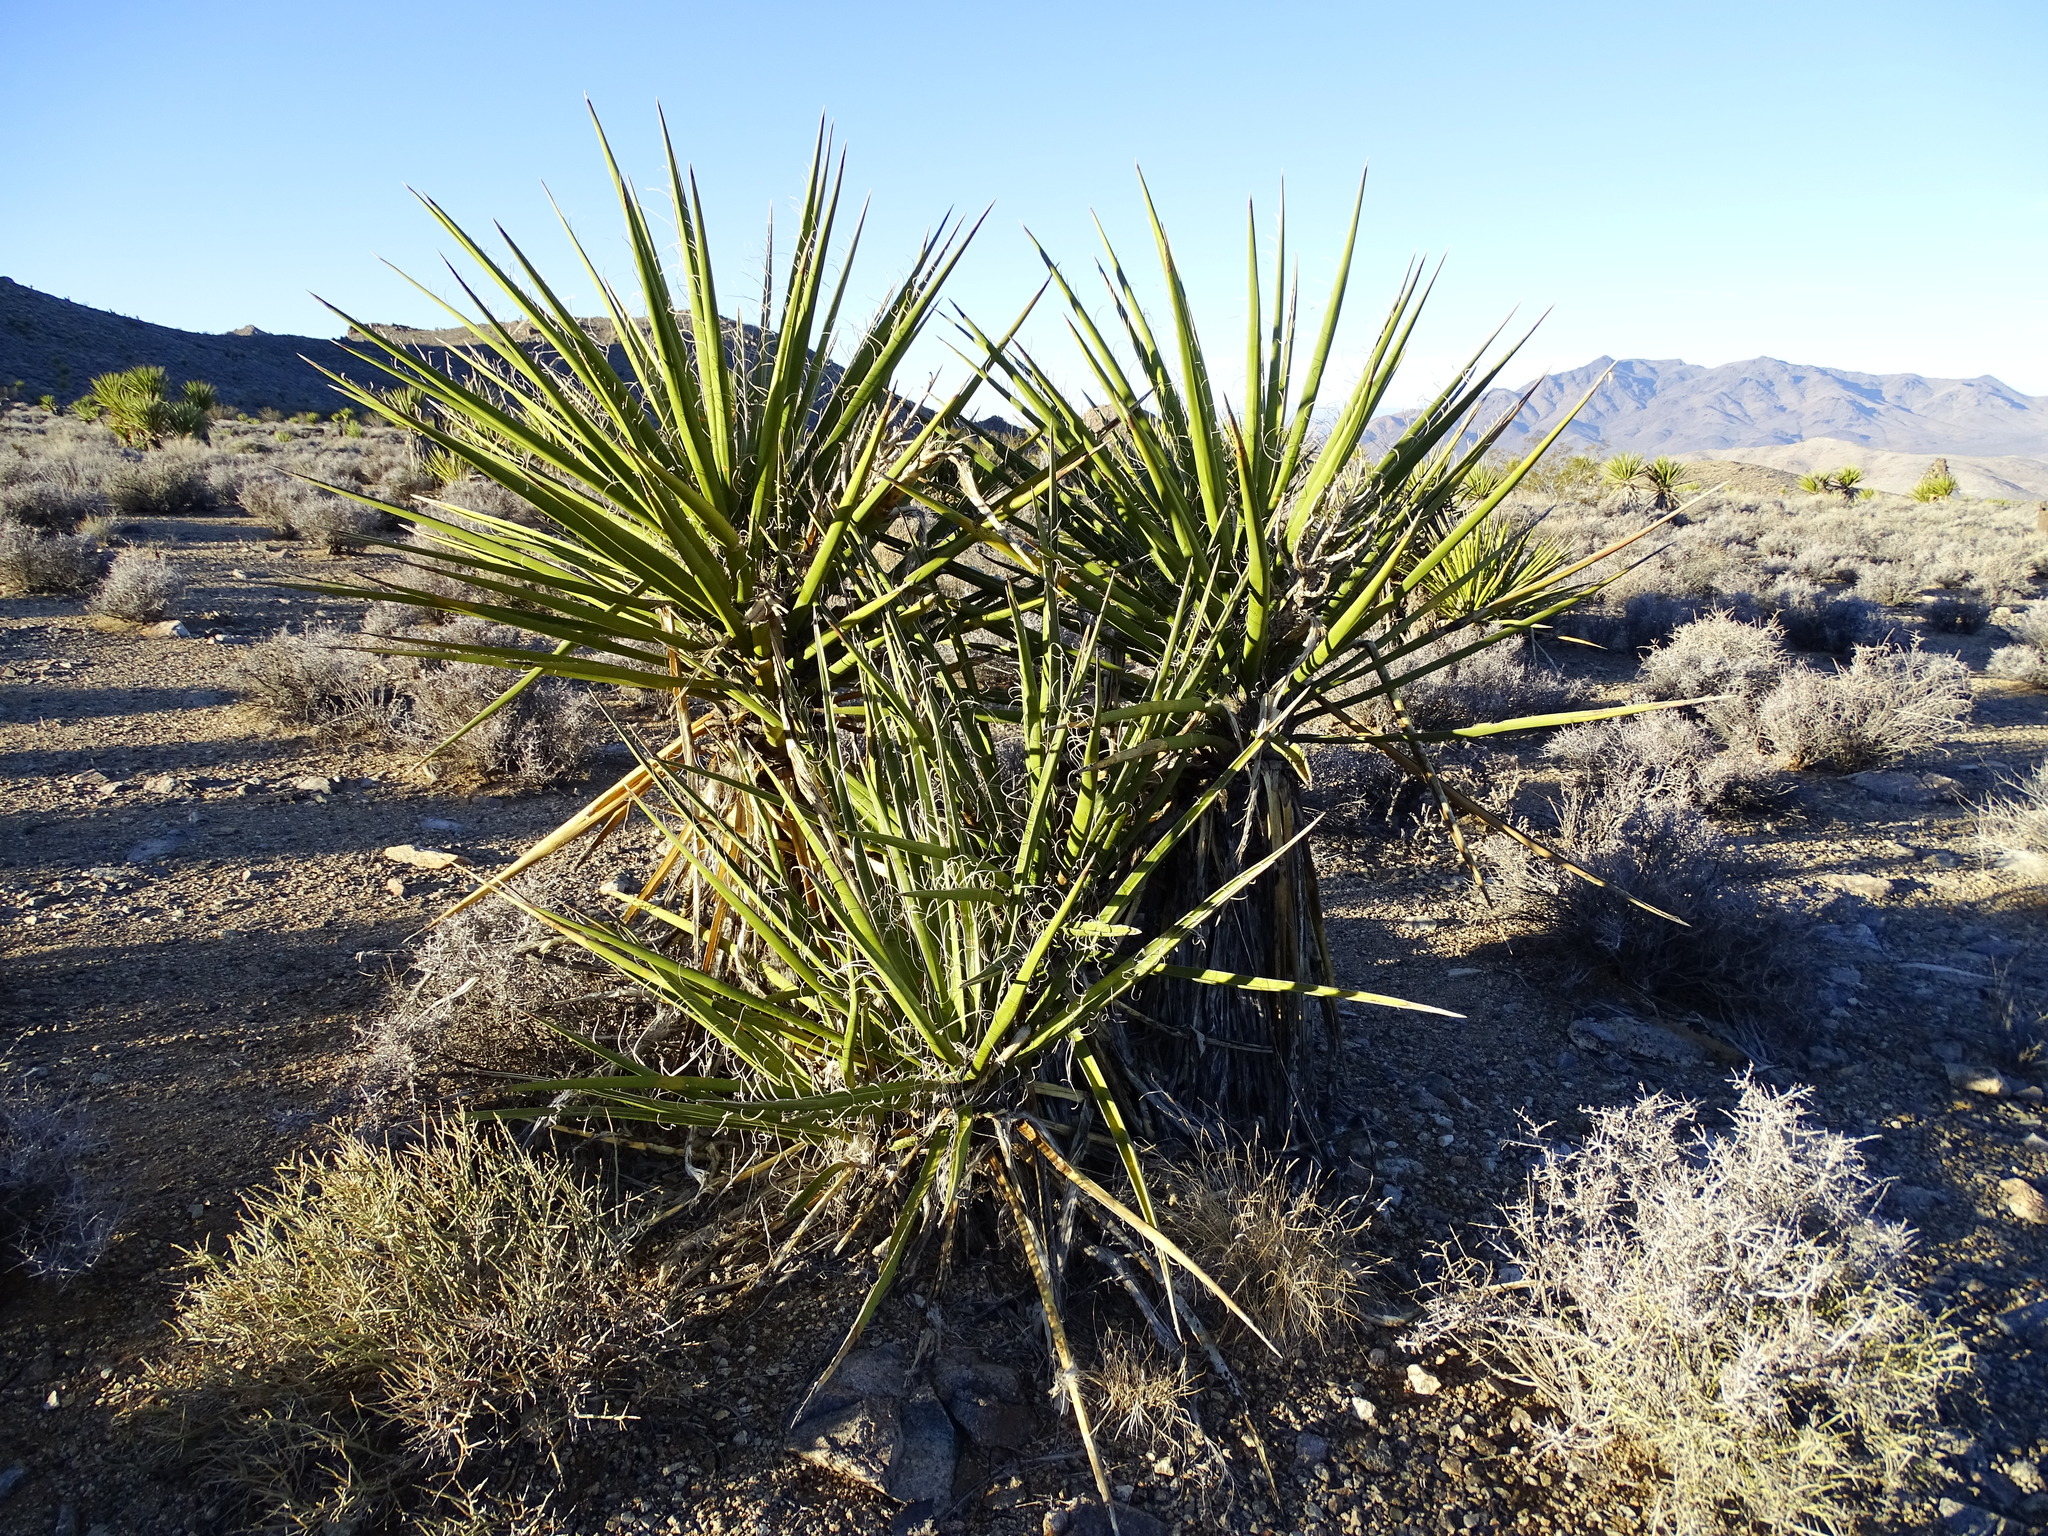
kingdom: Plantae
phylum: Tracheophyta
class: Liliopsida
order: Asparagales
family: Asparagaceae
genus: Yucca
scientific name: Yucca schidigera
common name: Mojave yucca
